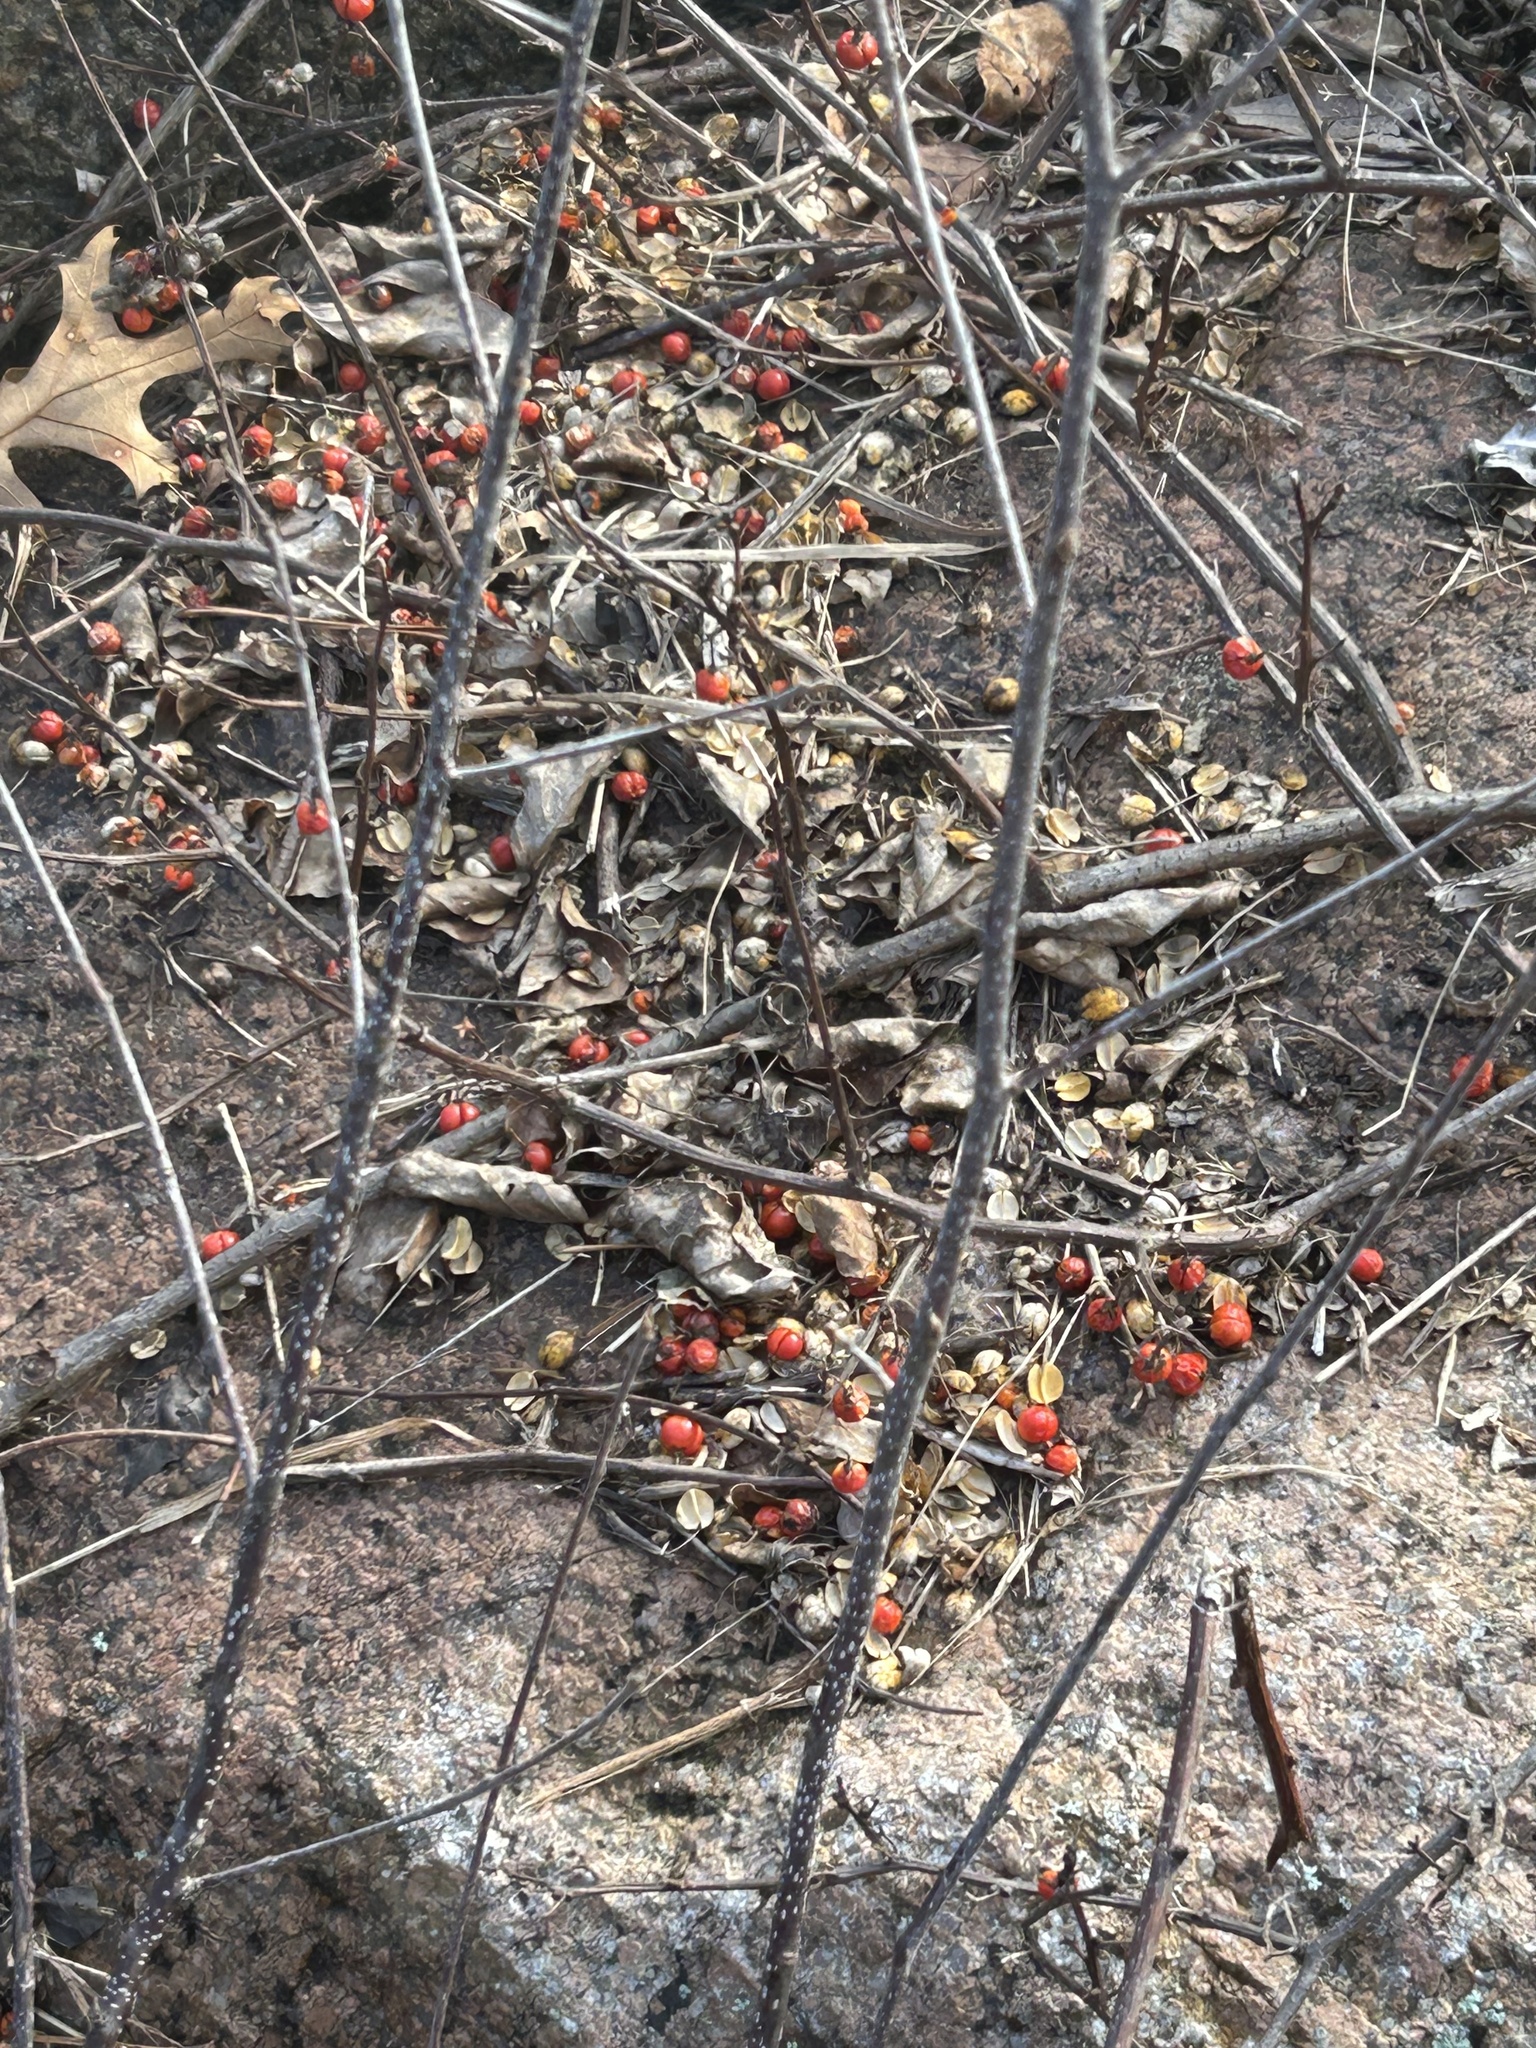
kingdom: Plantae
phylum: Tracheophyta
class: Magnoliopsida
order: Celastrales
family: Celastraceae
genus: Celastrus
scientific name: Celastrus orbiculatus
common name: Oriental bittersweet
